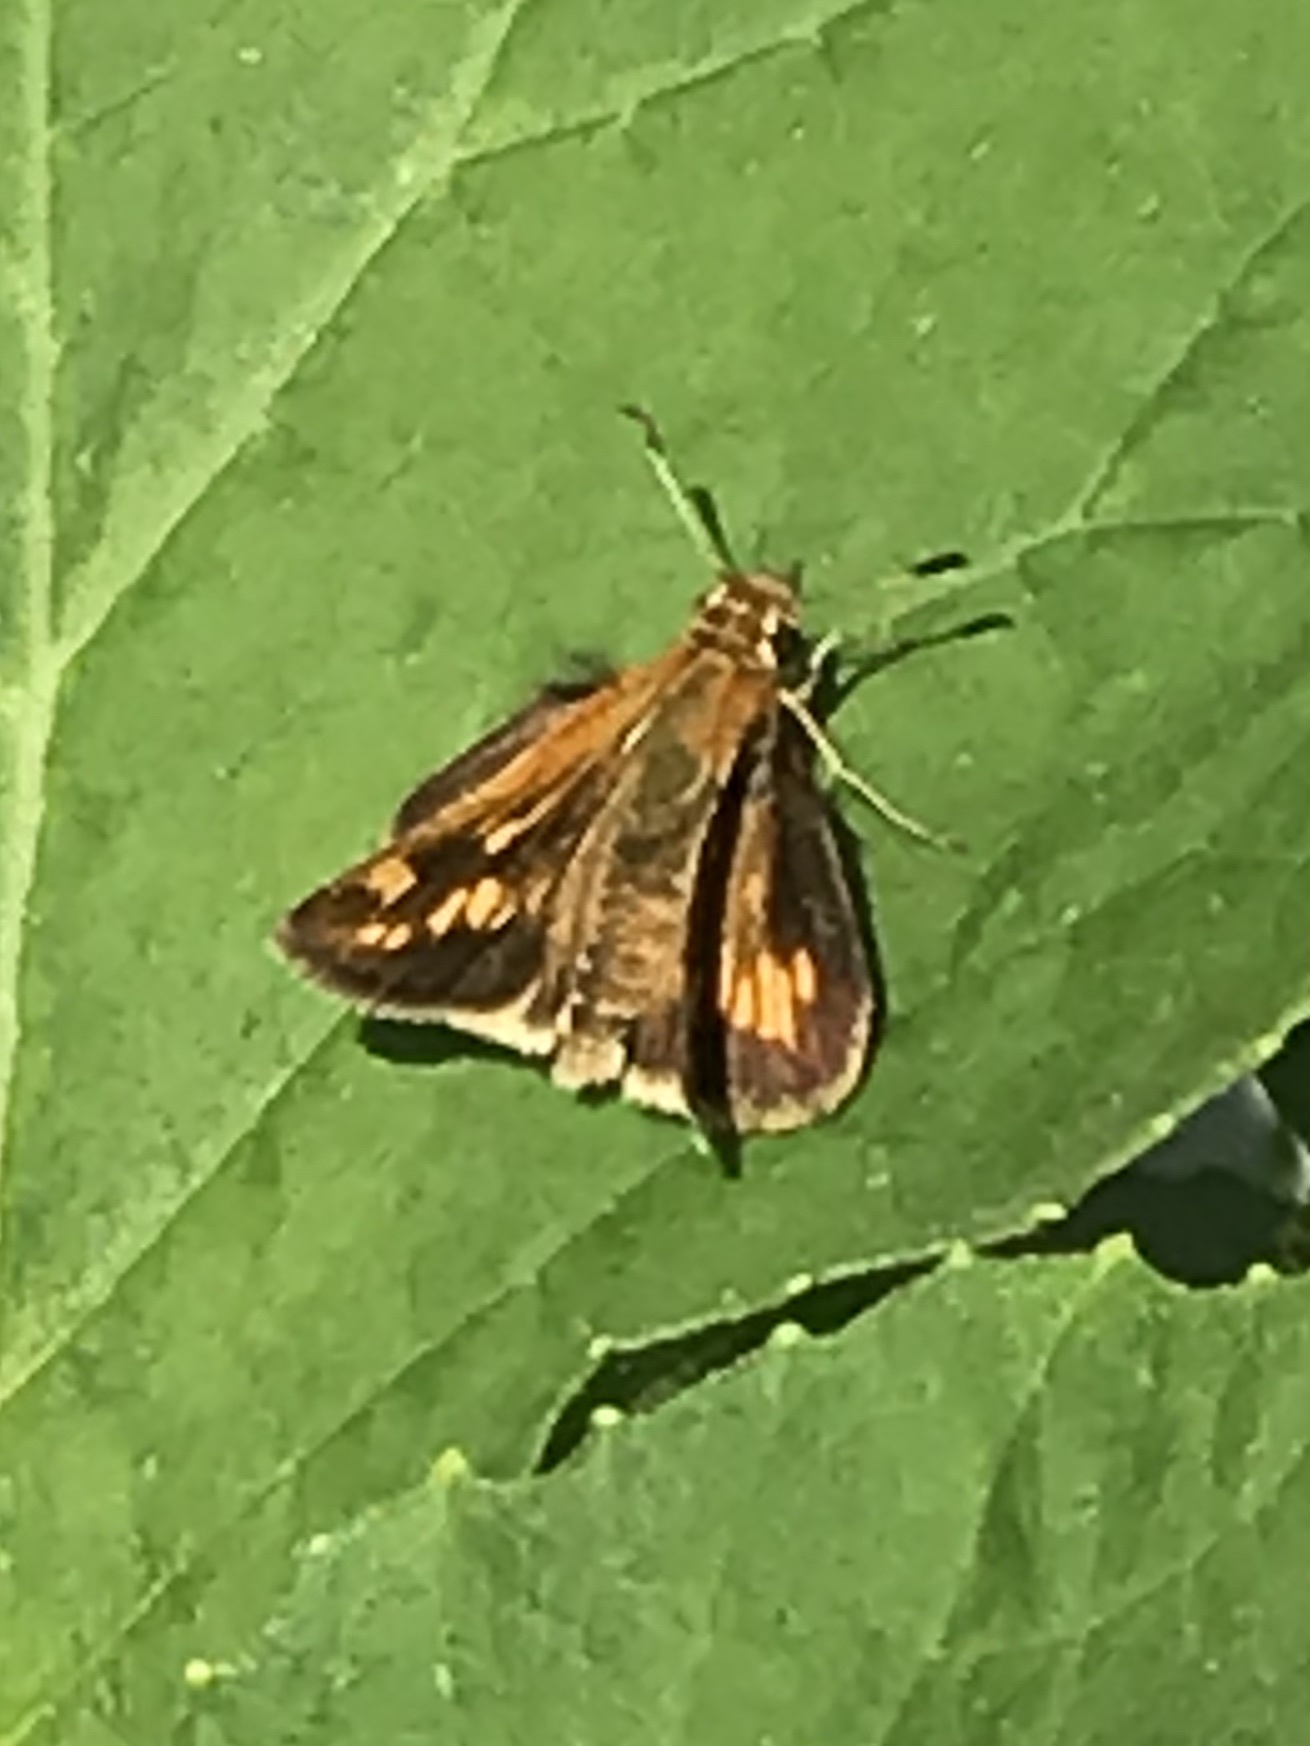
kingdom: Animalia
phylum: Arthropoda
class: Insecta
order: Lepidoptera
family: Hesperiidae
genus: Polites
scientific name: Polites coras
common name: Peck's skipper
